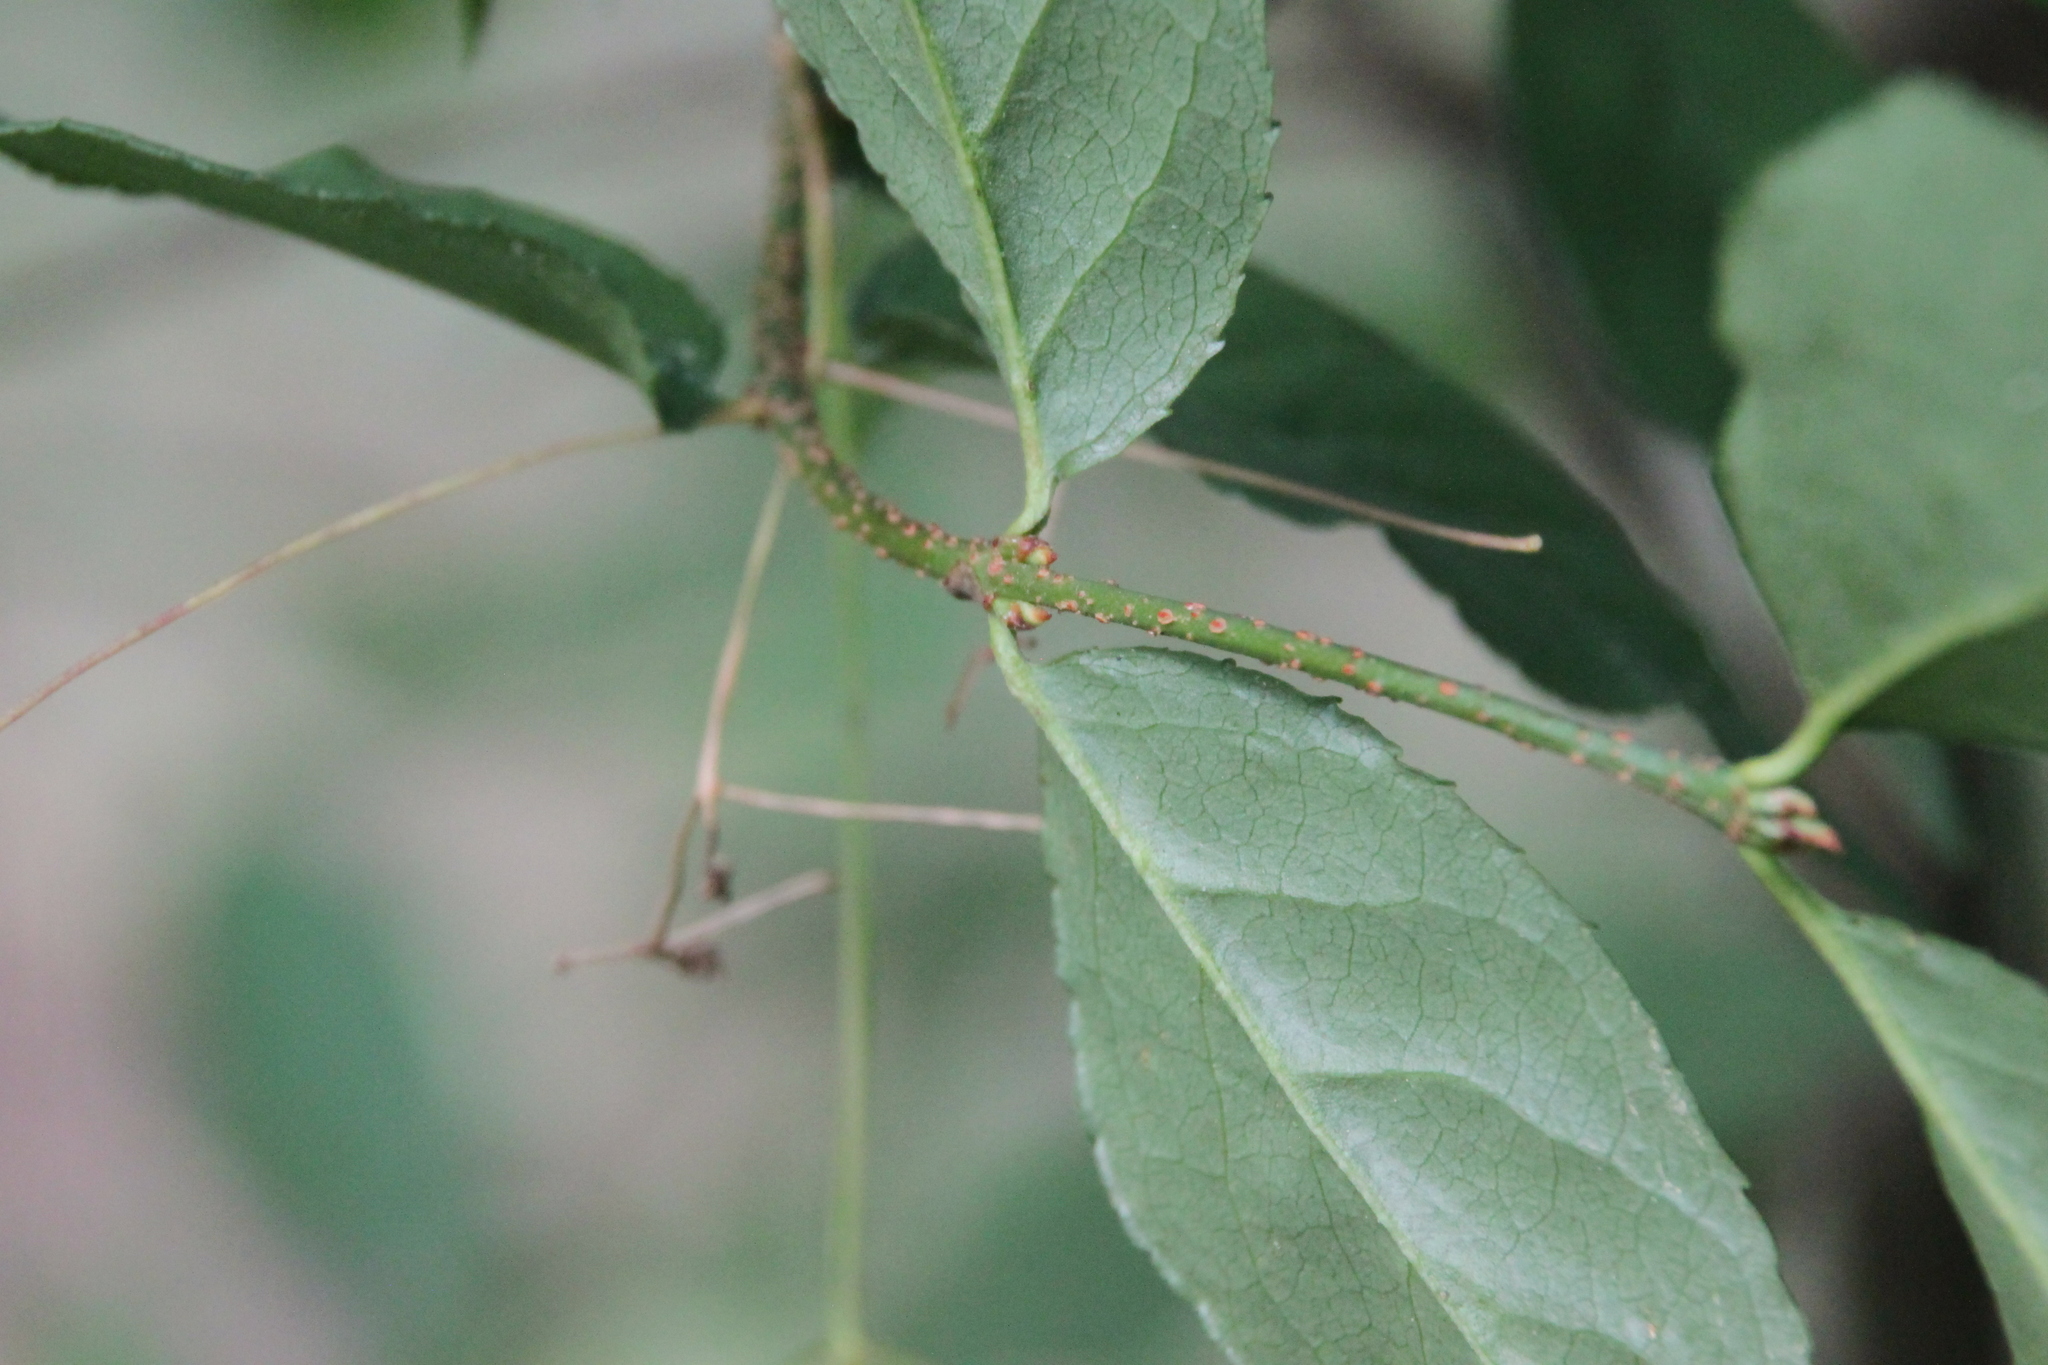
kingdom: Plantae
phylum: Tracheophyta
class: Magnoliopsida
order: Celastrales
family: Celastraceae
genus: Euonymus
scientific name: Euonymus verrucosus
